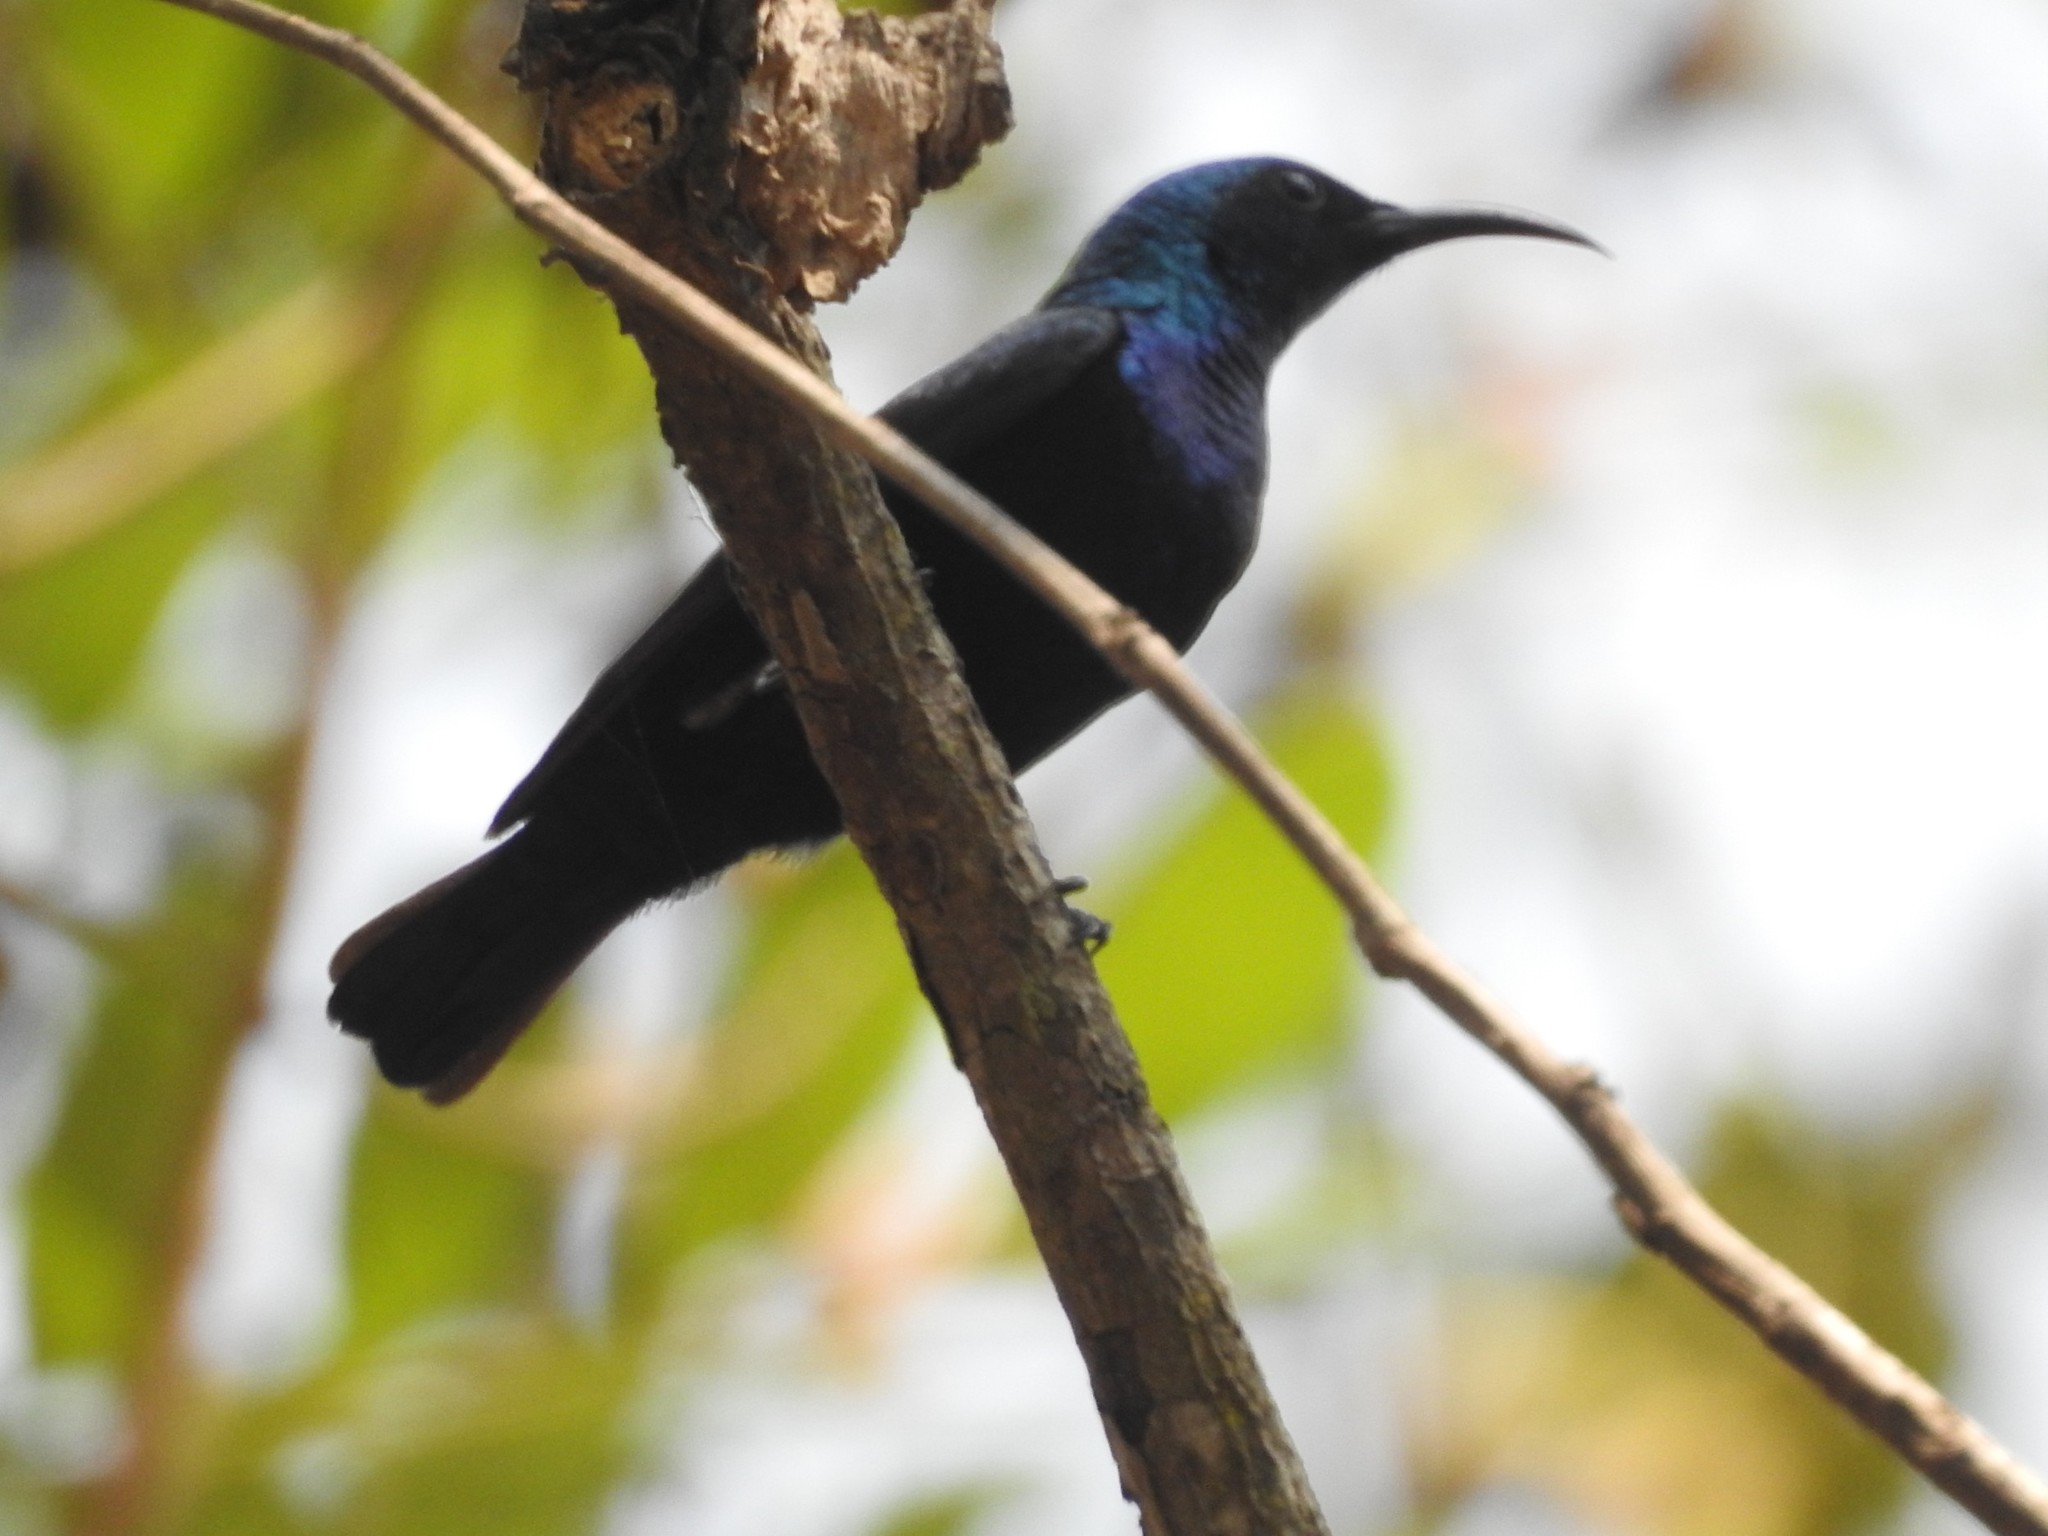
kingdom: Animalia
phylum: Chordata
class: Aves
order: Passeriformes
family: Nectariniidae
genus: Cinnyris
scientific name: Cinnyris asiaticus
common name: Purple sunbird
